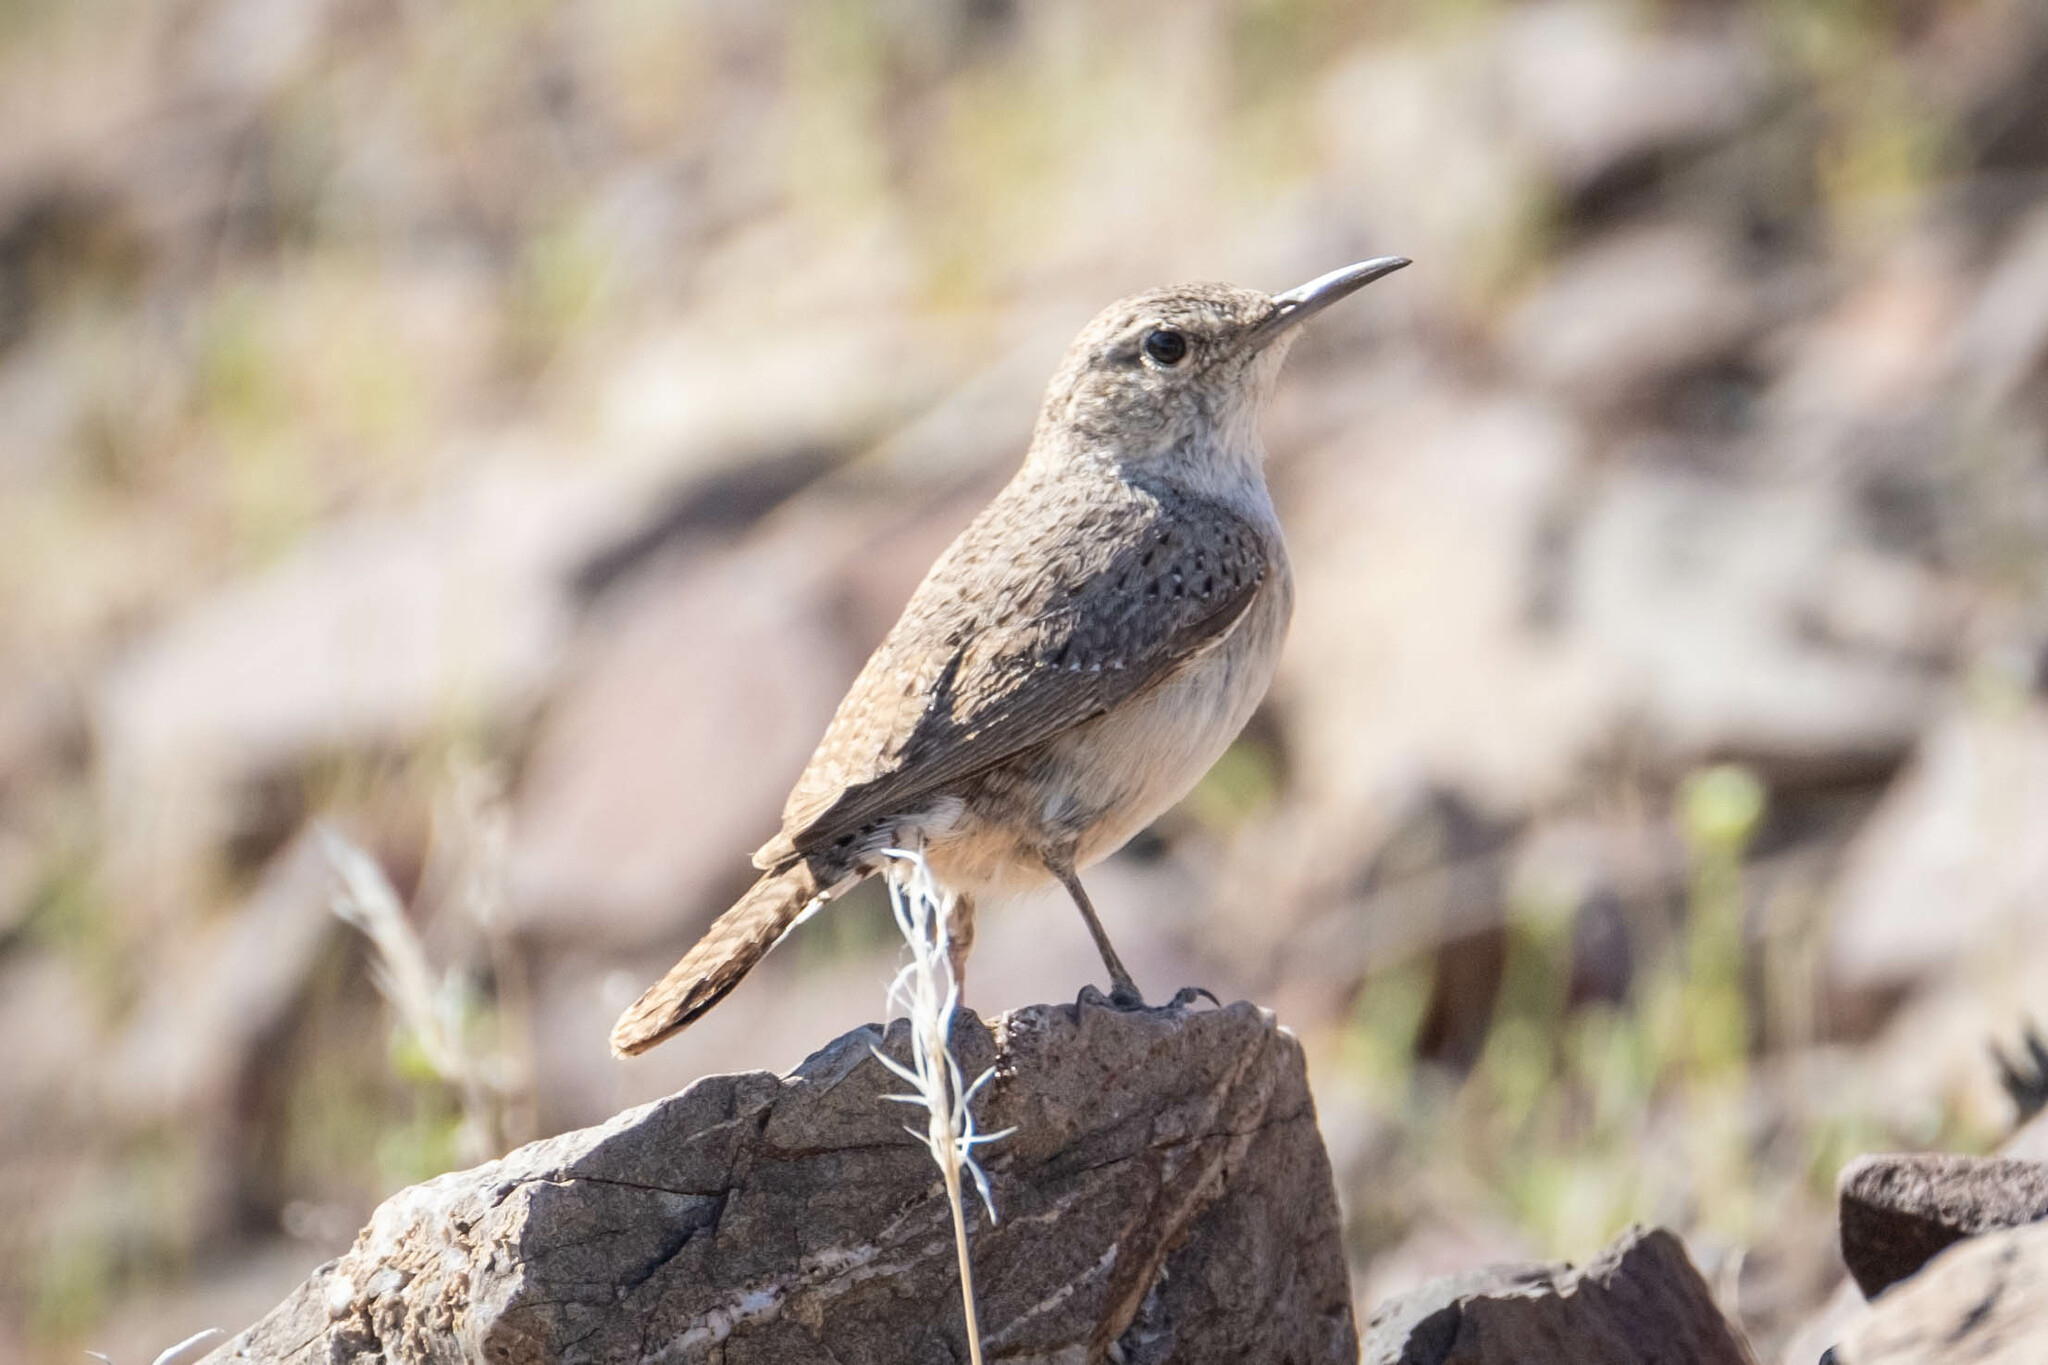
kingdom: Animalia
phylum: Chordata
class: Aves
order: Passeriformes
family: Troglodytidae
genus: Salpinctes
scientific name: Salpinctes obsoletus
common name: Rock wren
